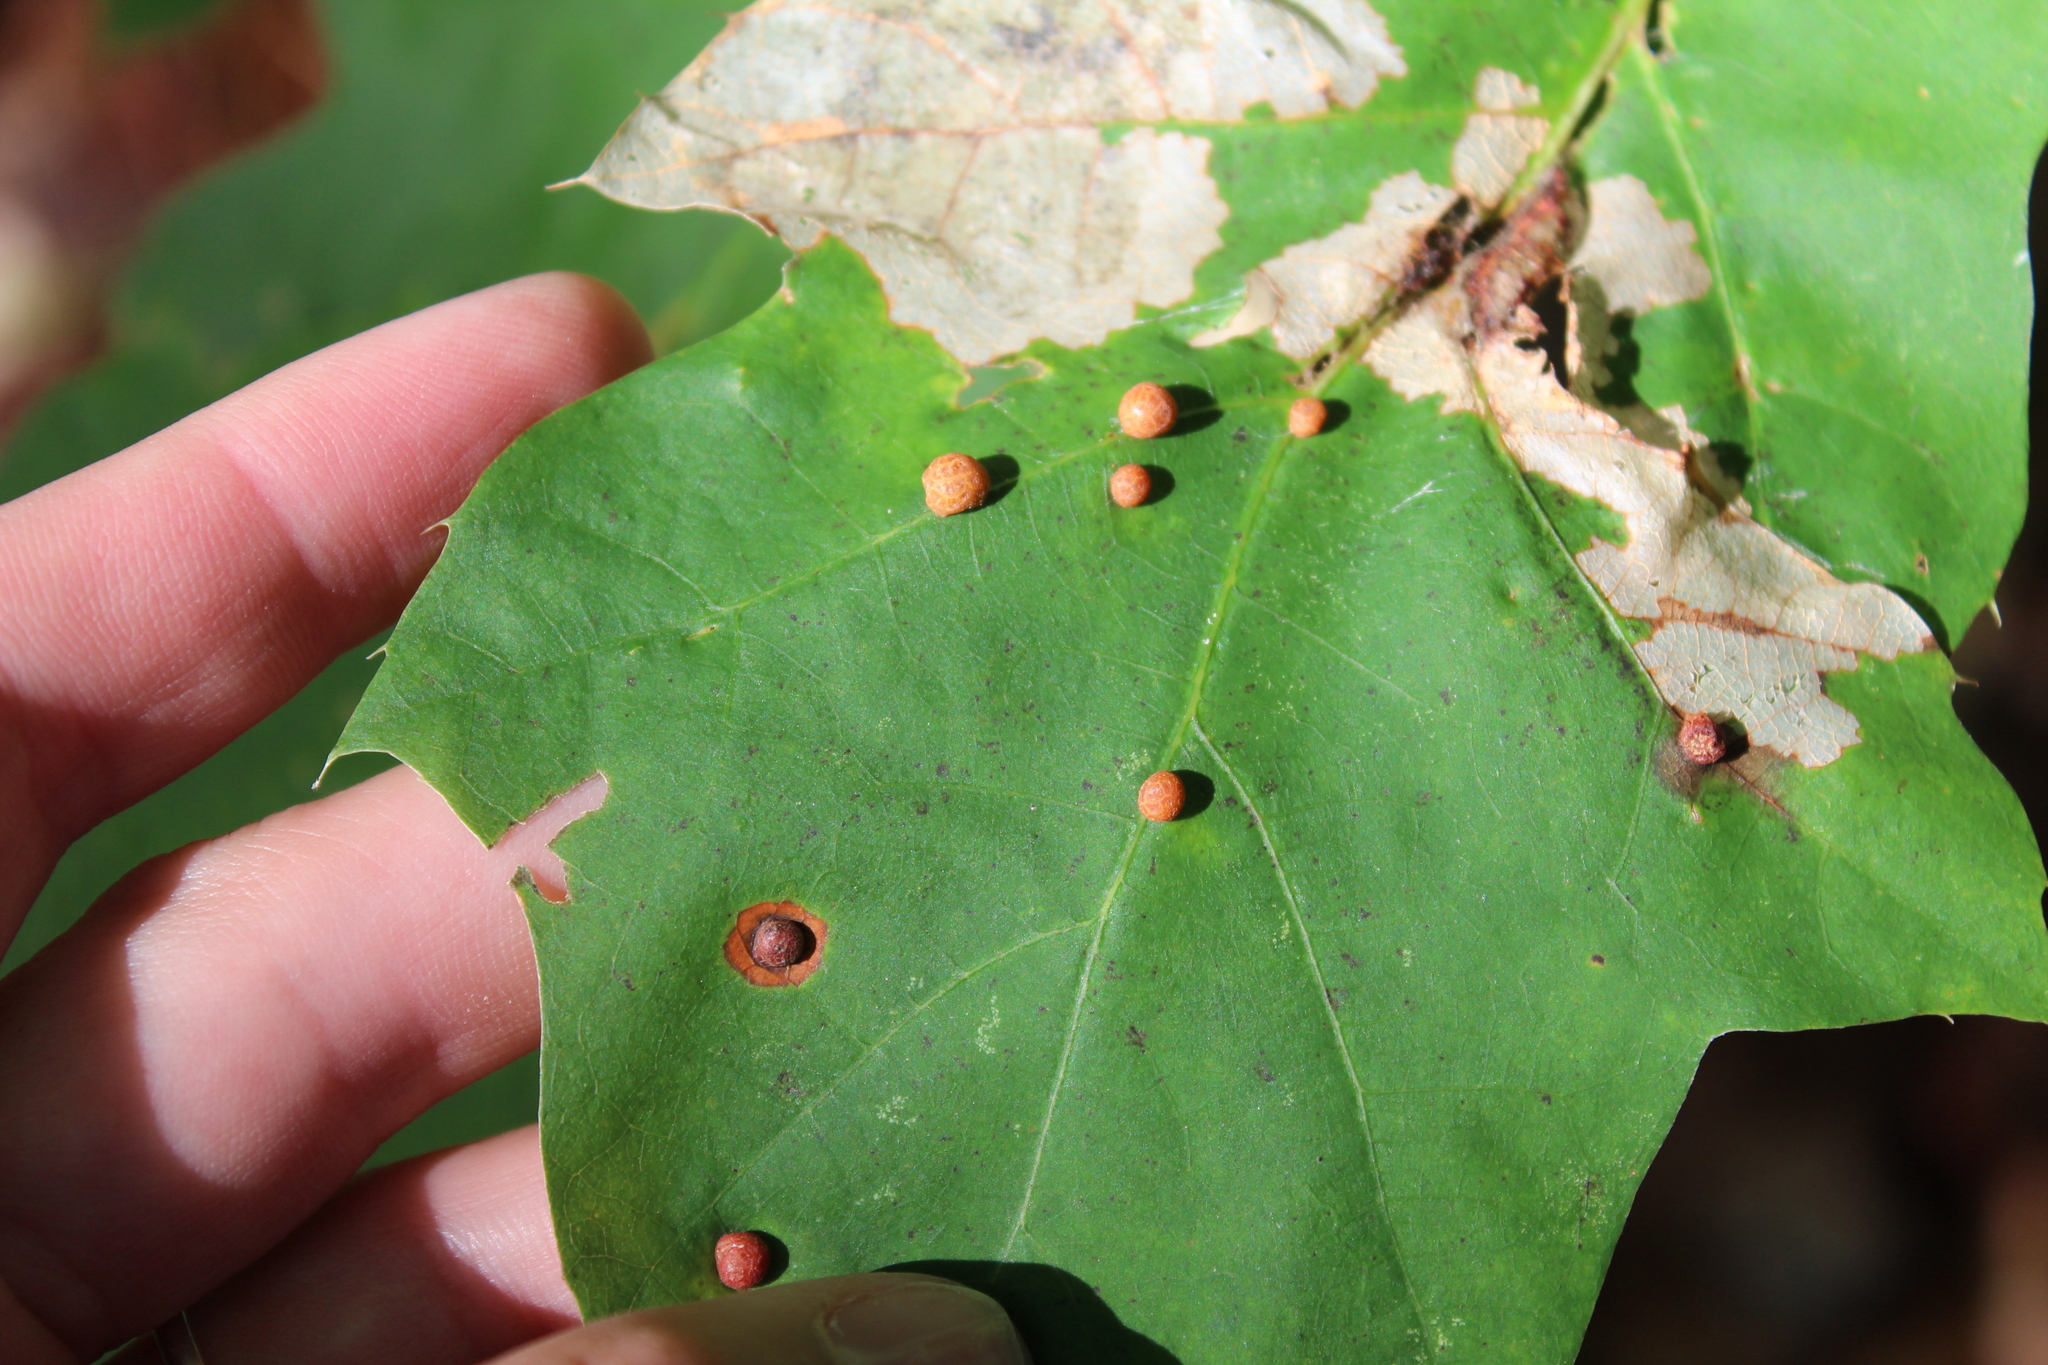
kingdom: Animalia
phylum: Arthropoda
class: Insecta
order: Diptera
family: Cecidomyiidae
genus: Polystepha
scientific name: Polystepha pilulae
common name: Oak leaf gall midge
